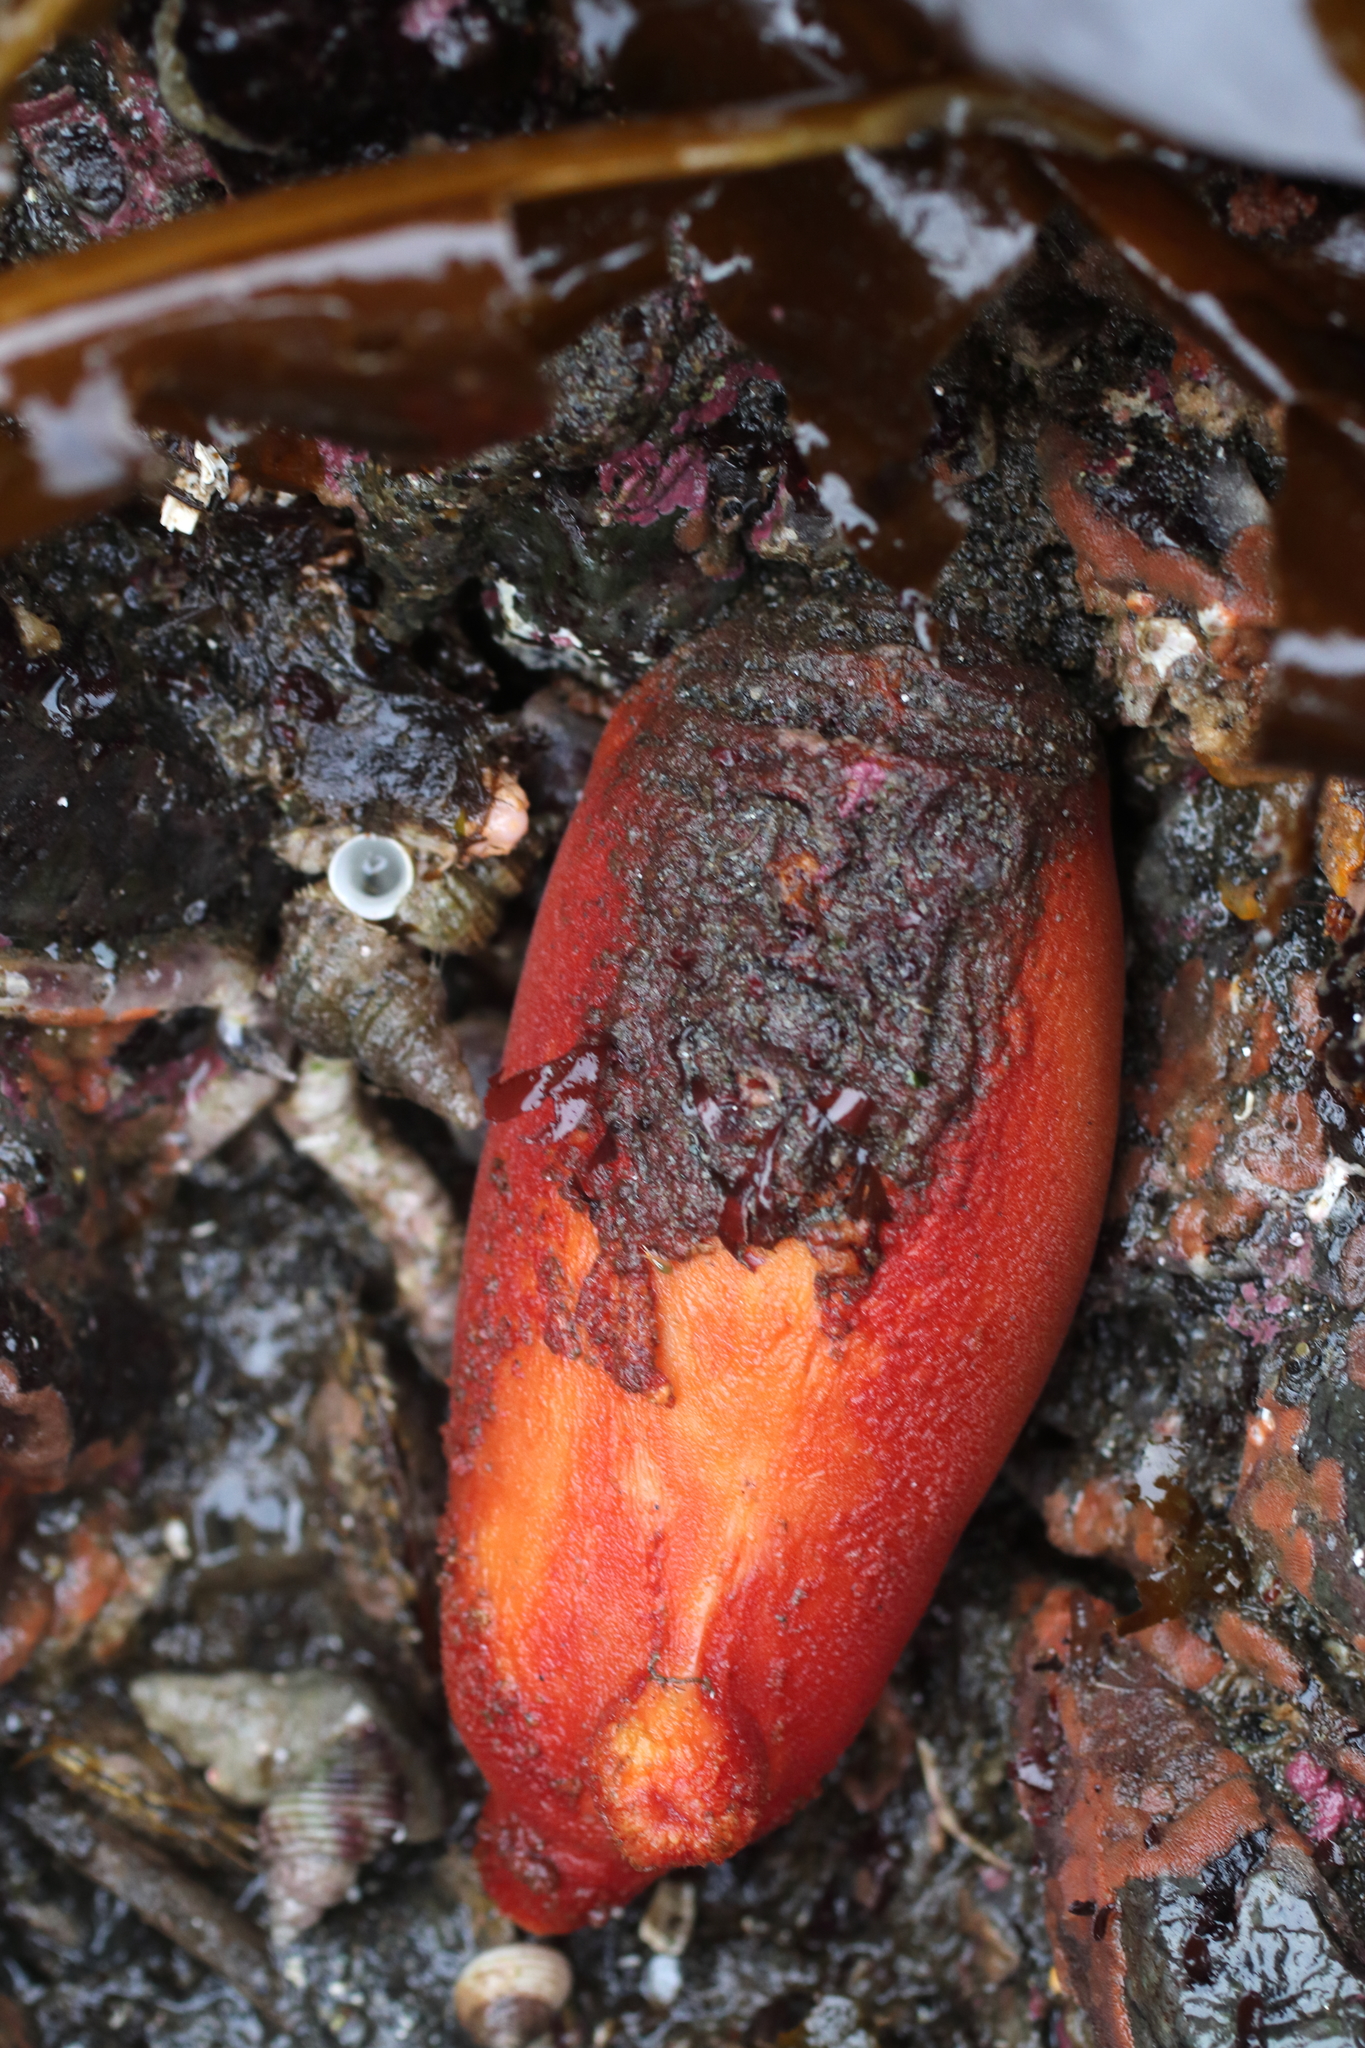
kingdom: Animalia
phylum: Chordata
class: Ascidiacea
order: Stolidobranchia
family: Pyuridae
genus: Halocynthia
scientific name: Halocynthia aurantium
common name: Sea peach
